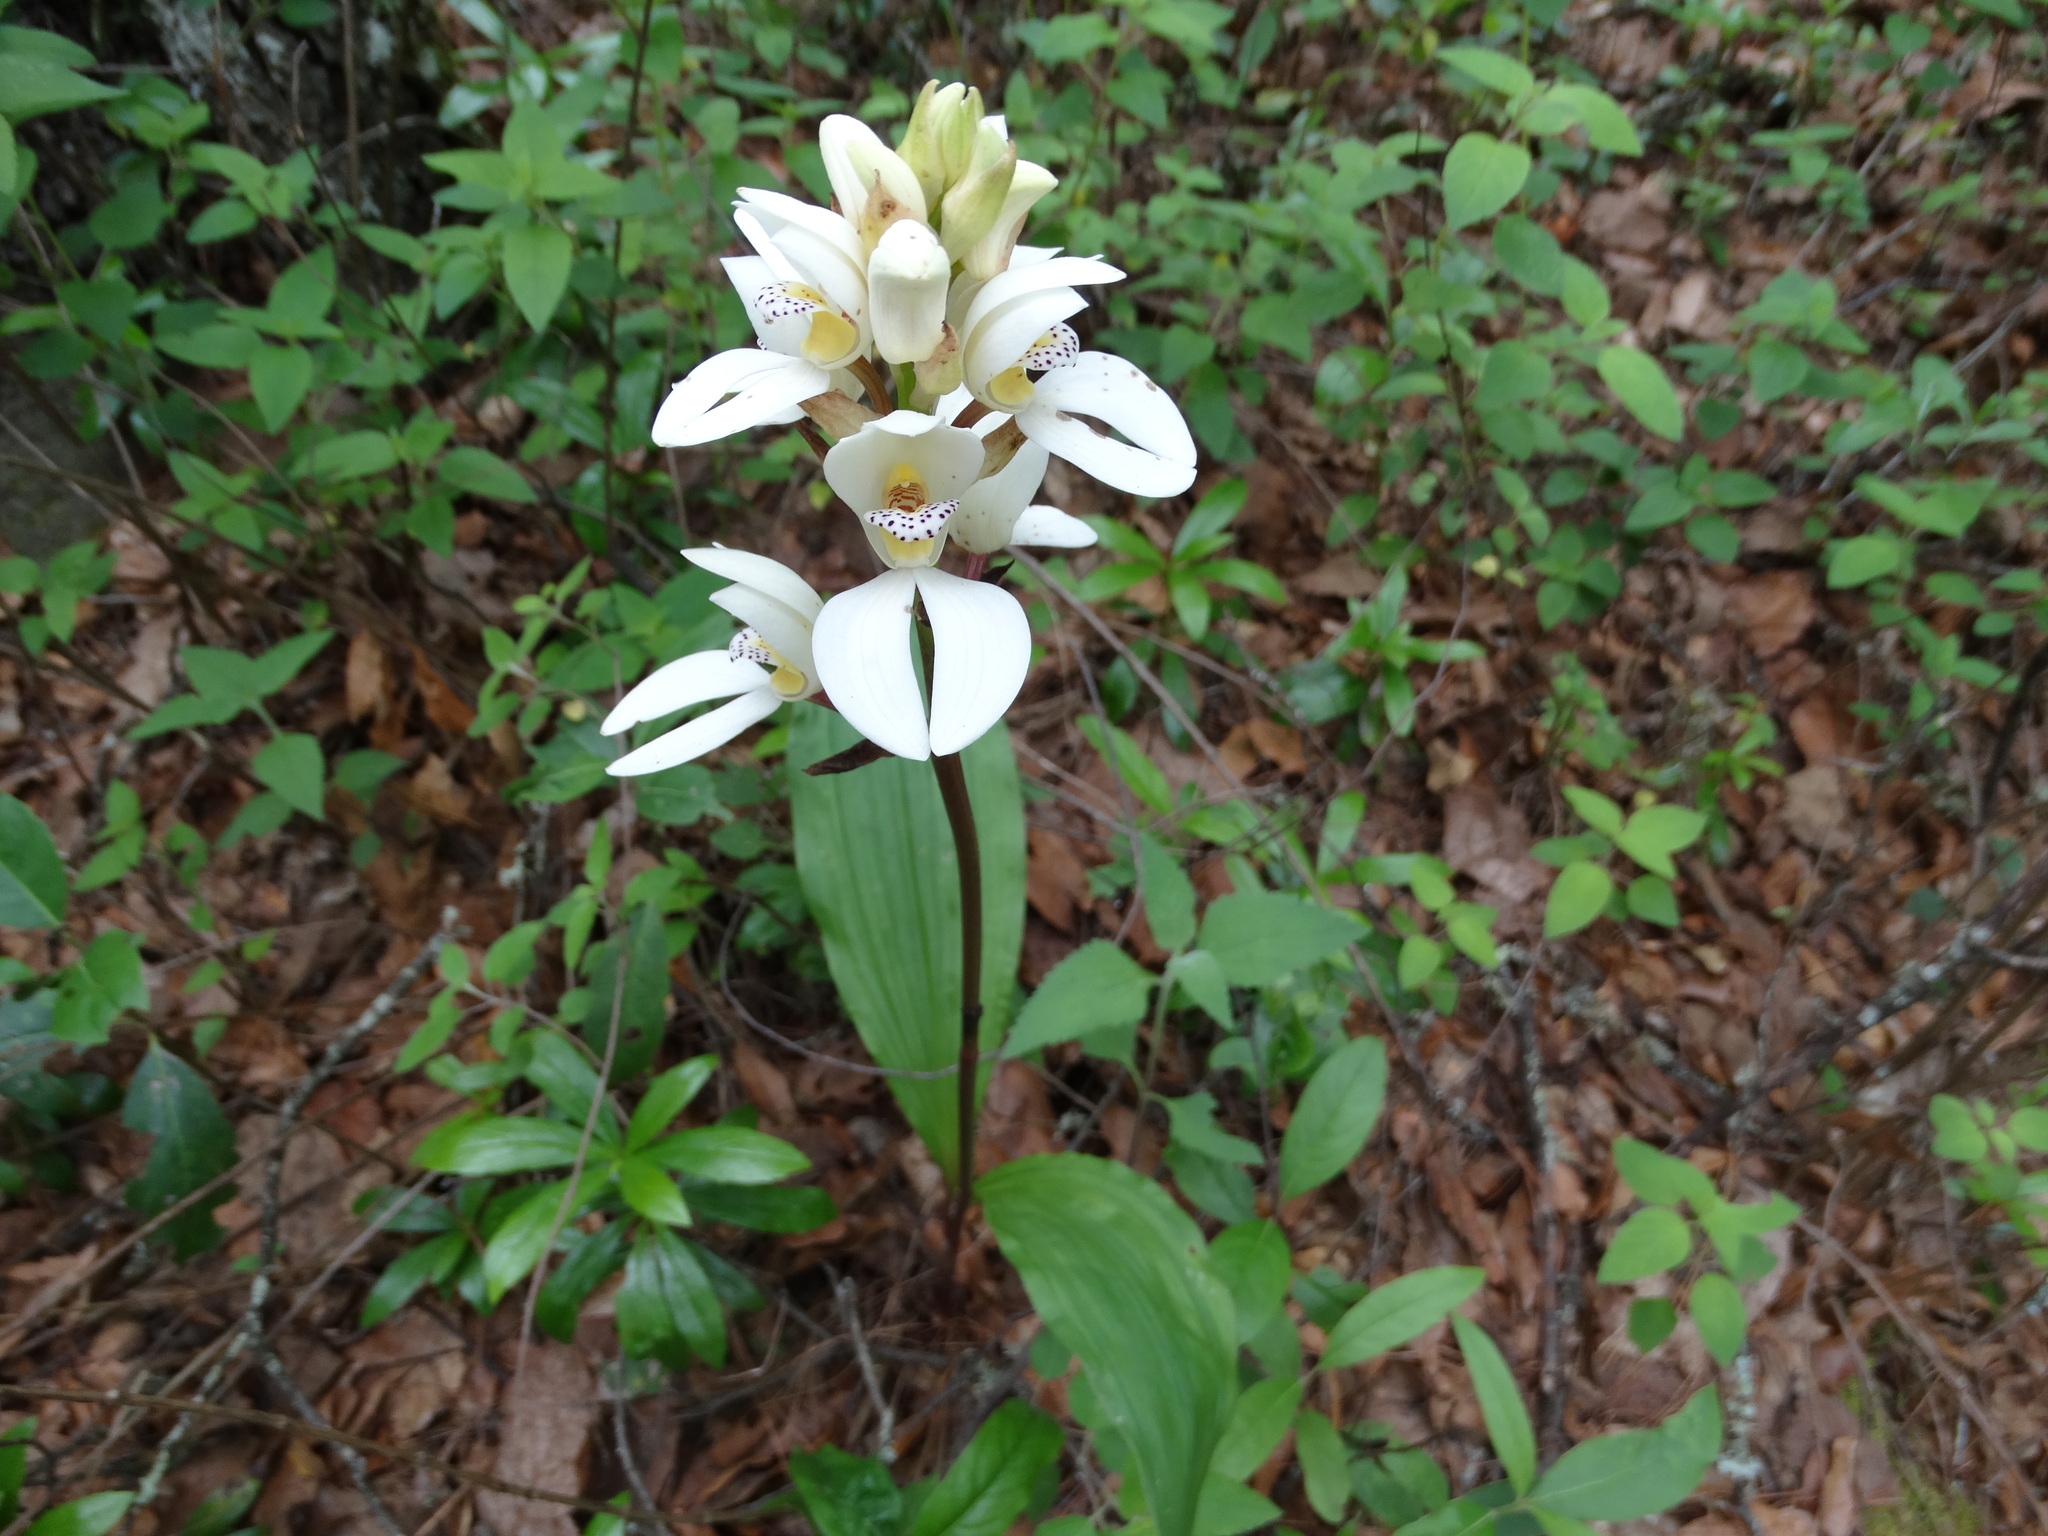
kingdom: Plantae
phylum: Tracheophyta
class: Liliopsida
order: Asparagales
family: Orchidaceae
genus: Govenia
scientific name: Govenia capitata
